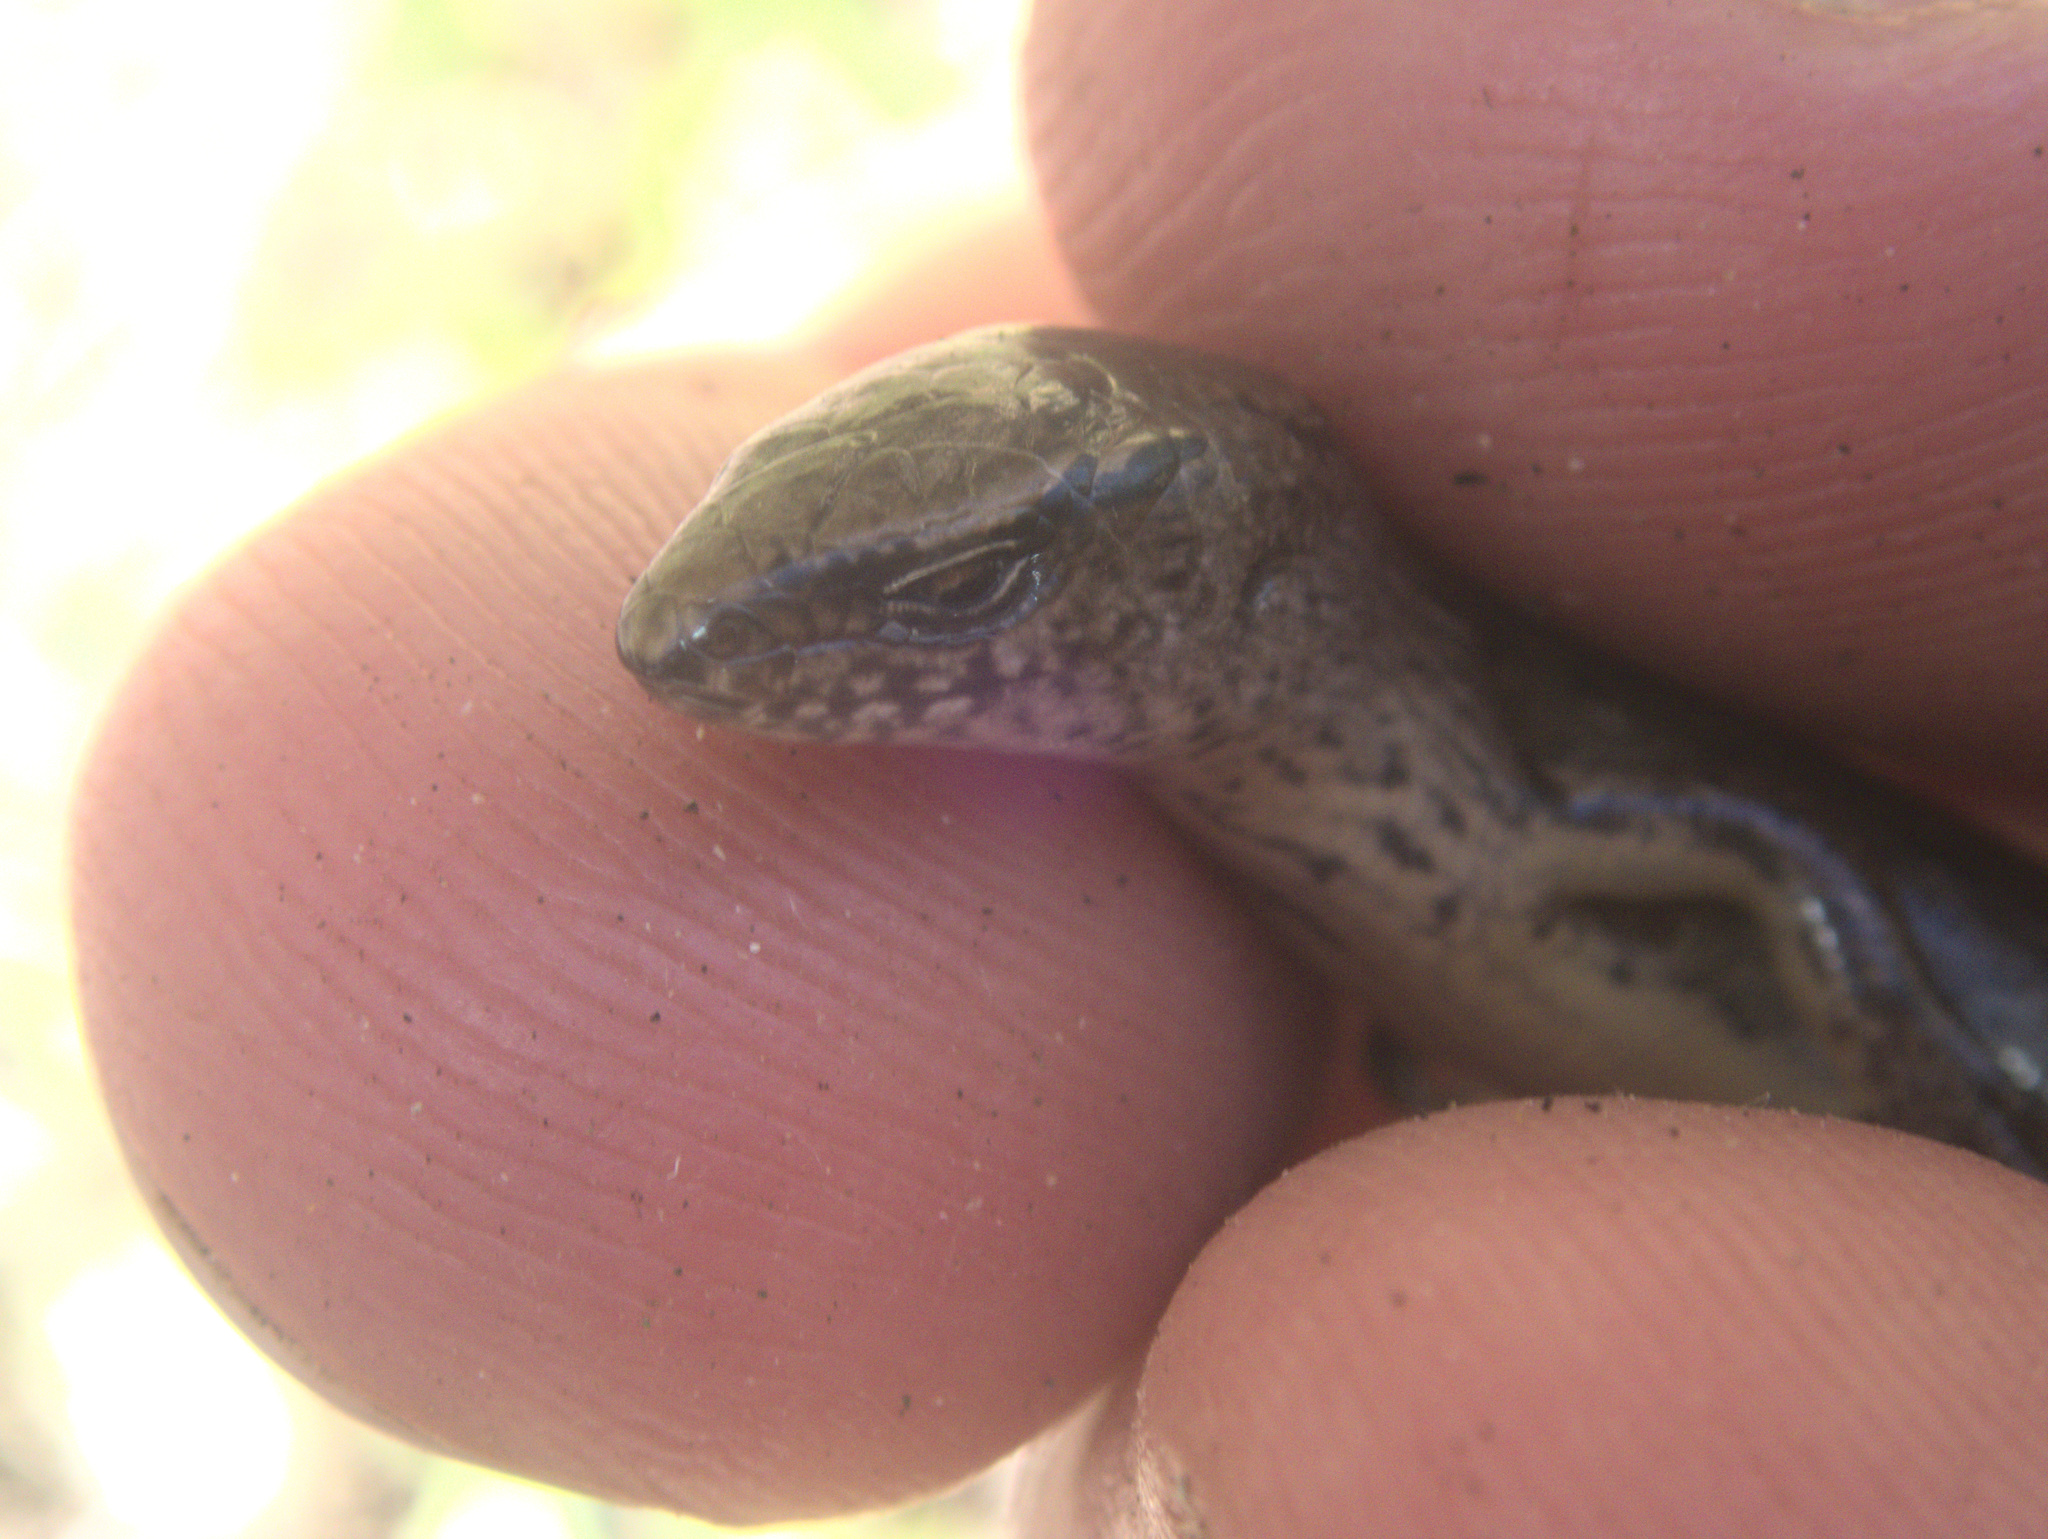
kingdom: Animalia
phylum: Chordata
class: Squamata
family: Scincidae
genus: Oligosoma
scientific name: Oligosoma aeneum
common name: Copper skink
